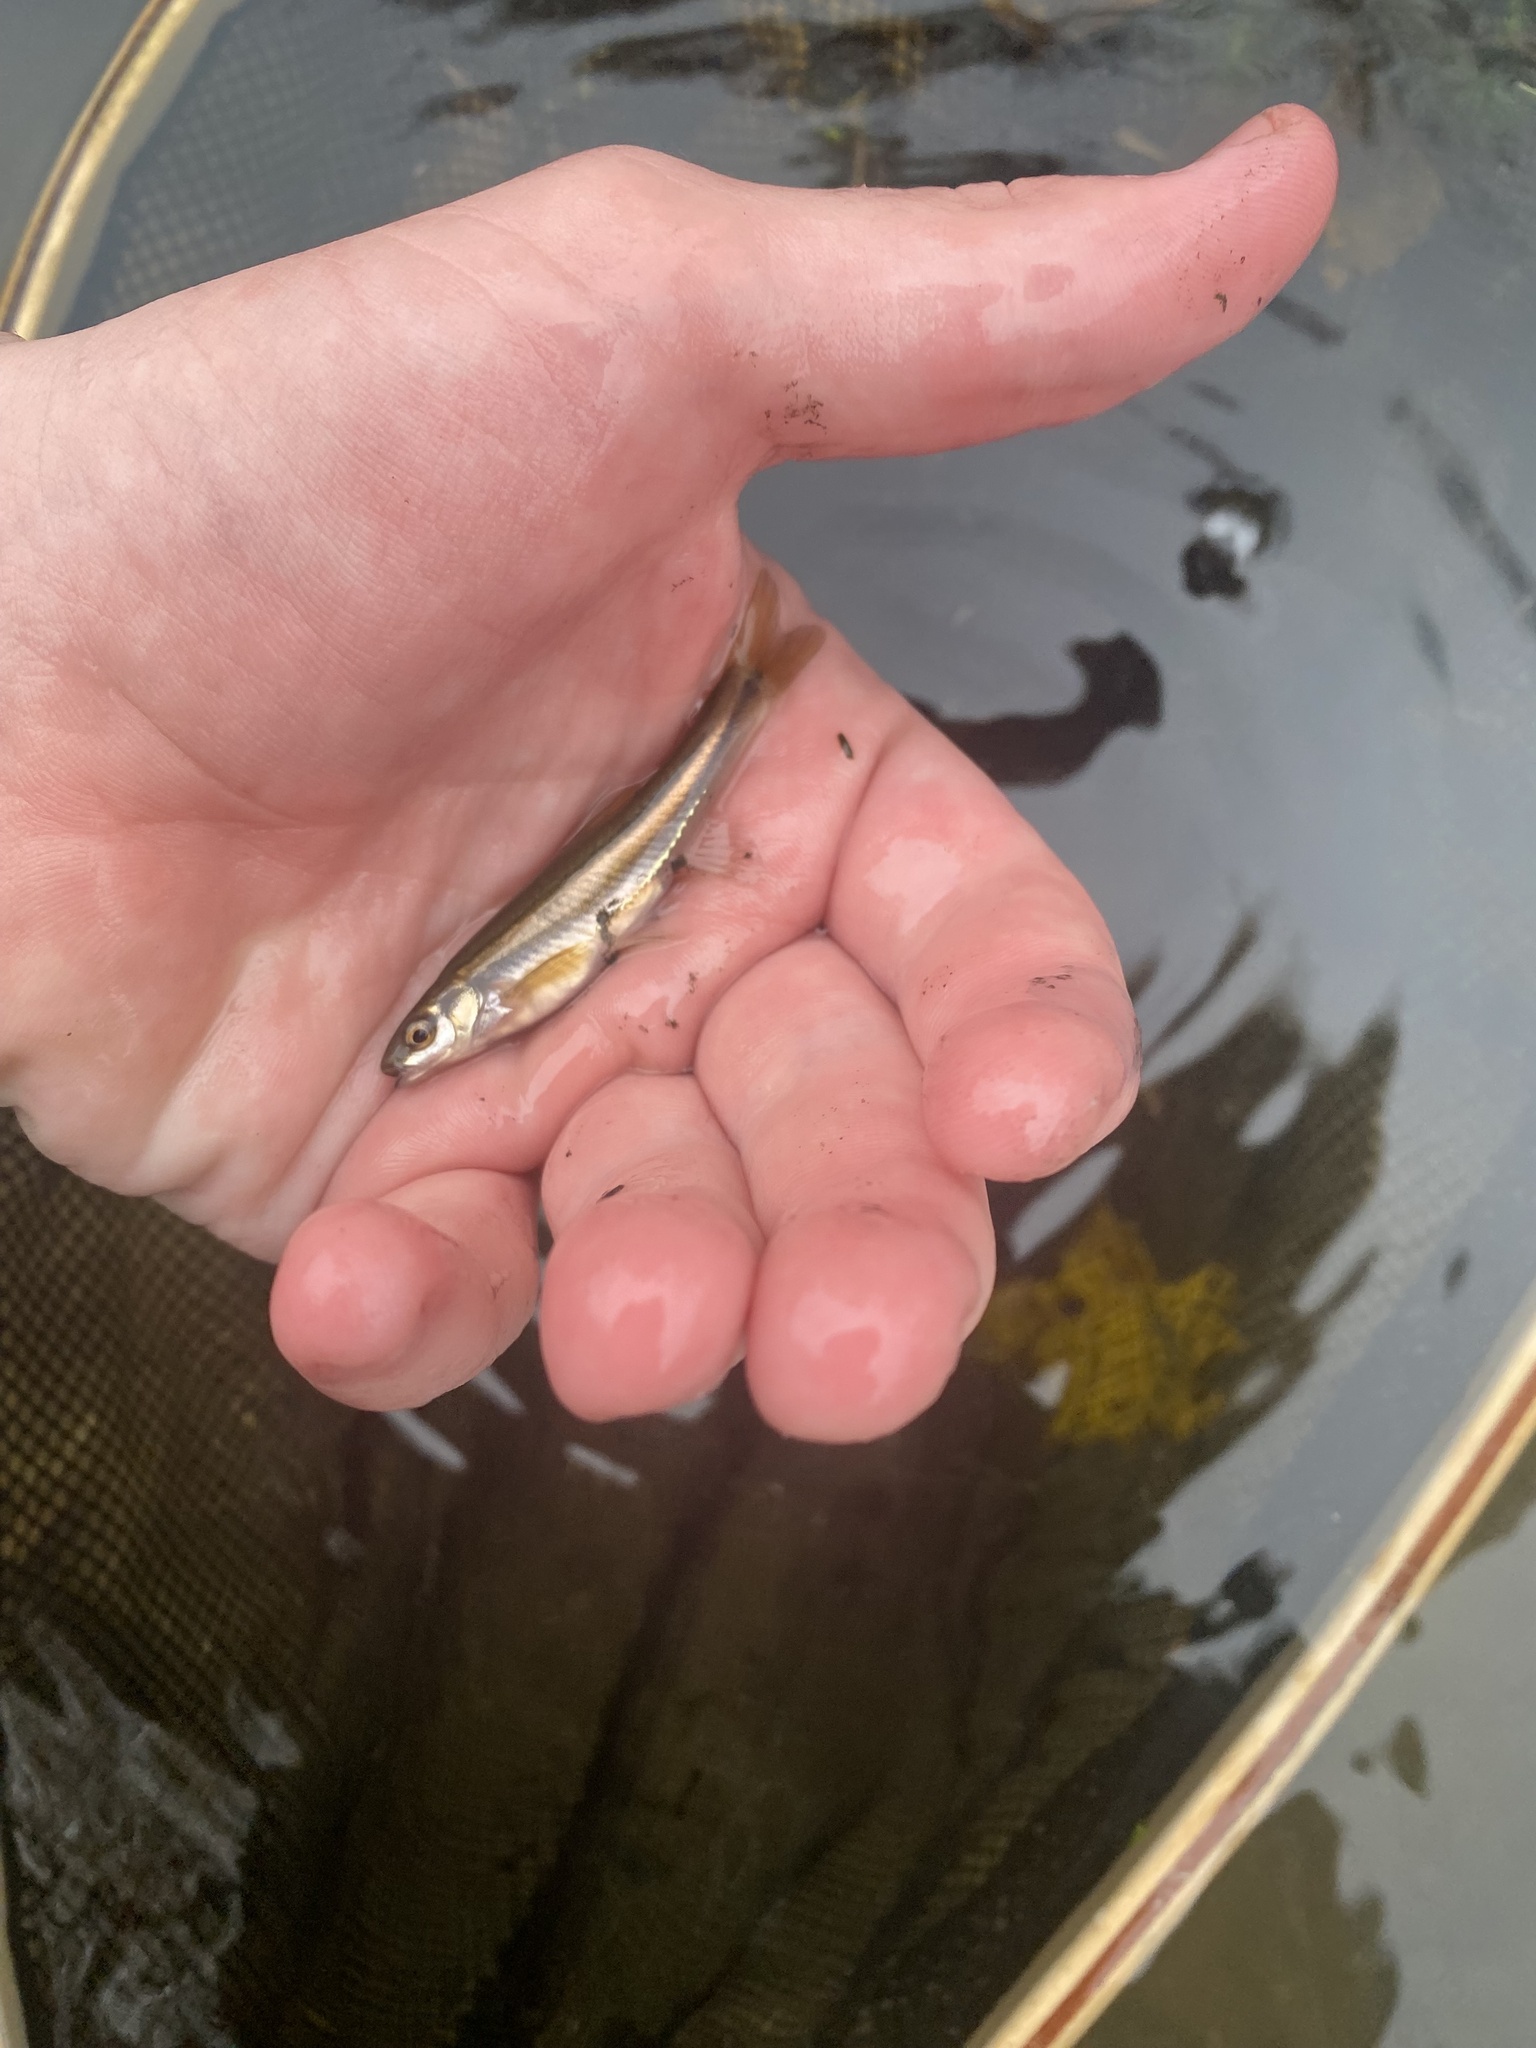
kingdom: Animalia
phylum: Chordata
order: Cypriniformes
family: Cyprinidae
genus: Chrosomus
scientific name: Chrosomus erythrogaster
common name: Southern redbelly dace
